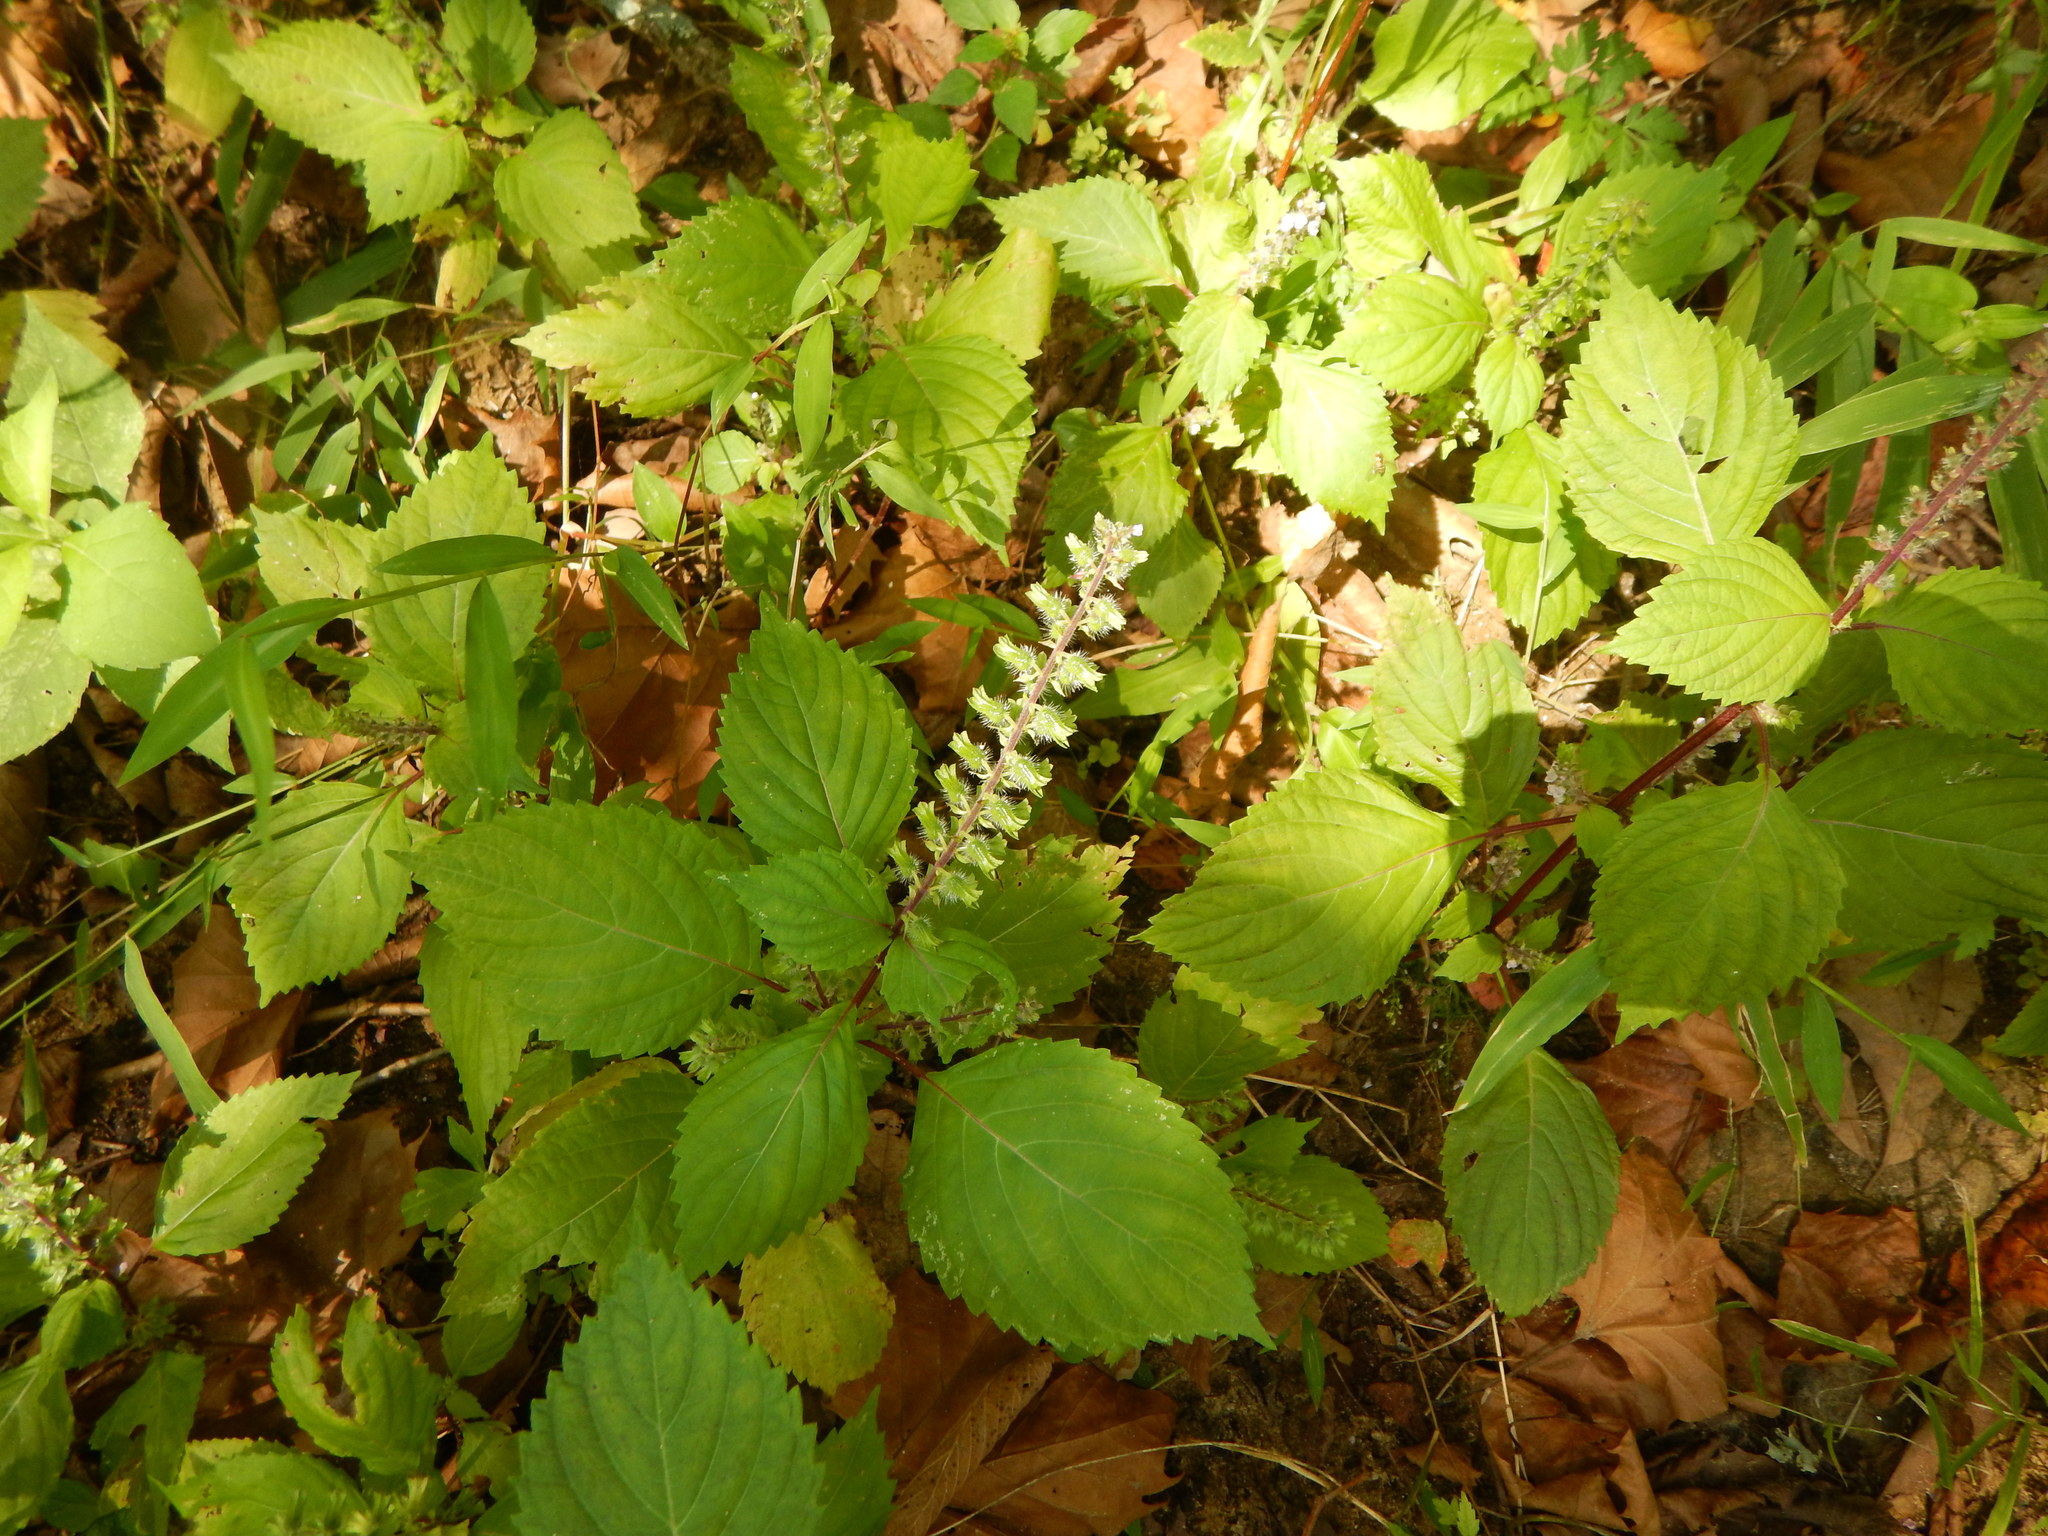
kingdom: Plantae
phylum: Tracheophyta
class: Magnoliopsida
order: Lamiales
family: Lamiaceae
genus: Perilla
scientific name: Perilla frutescens
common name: Perilla
